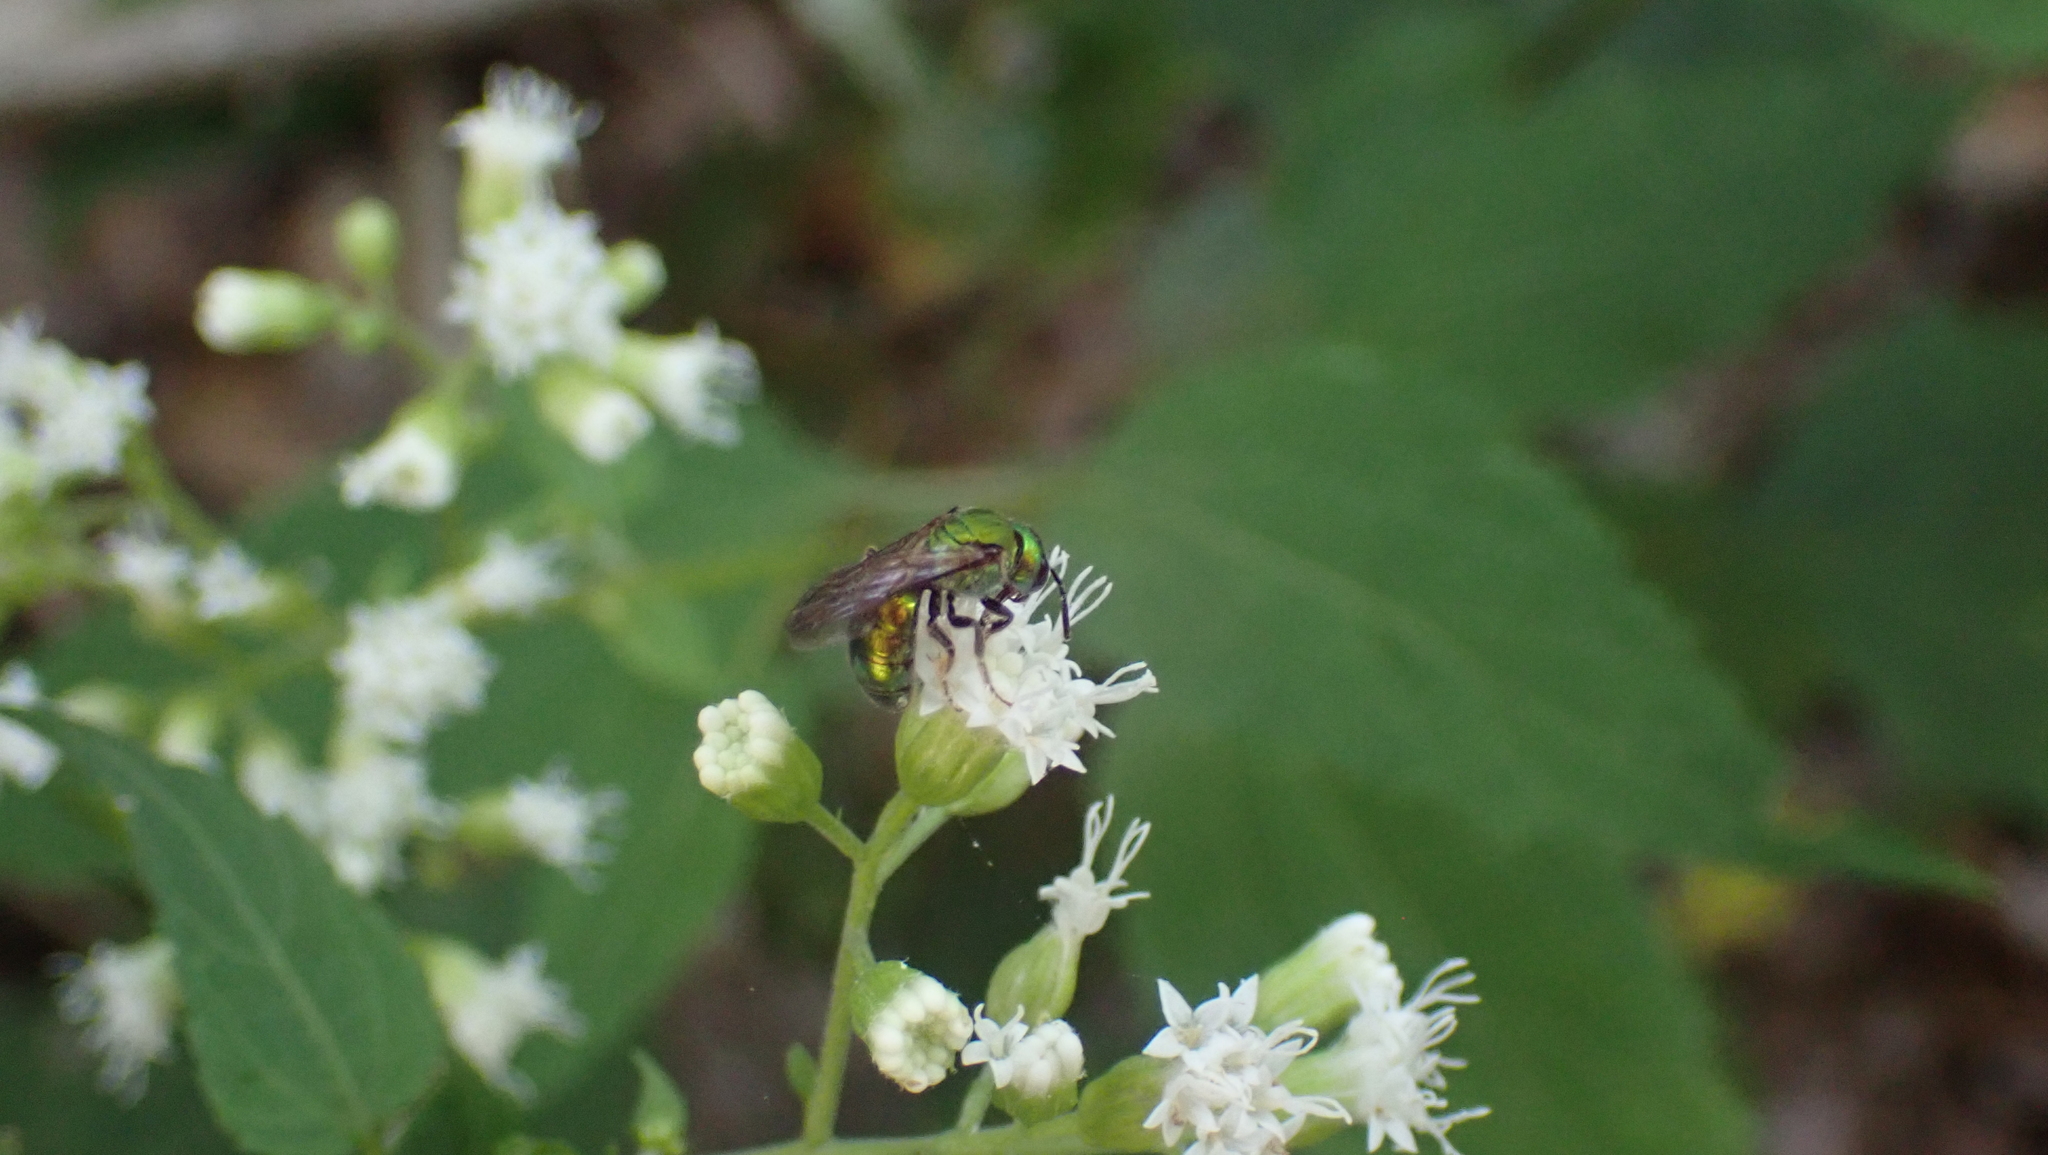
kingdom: Animalia
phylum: Arthropoda
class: Insecta
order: Hymenoptera
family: Halictidae
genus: Augochlora
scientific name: Augochlora pura
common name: Pure green sweat bee
